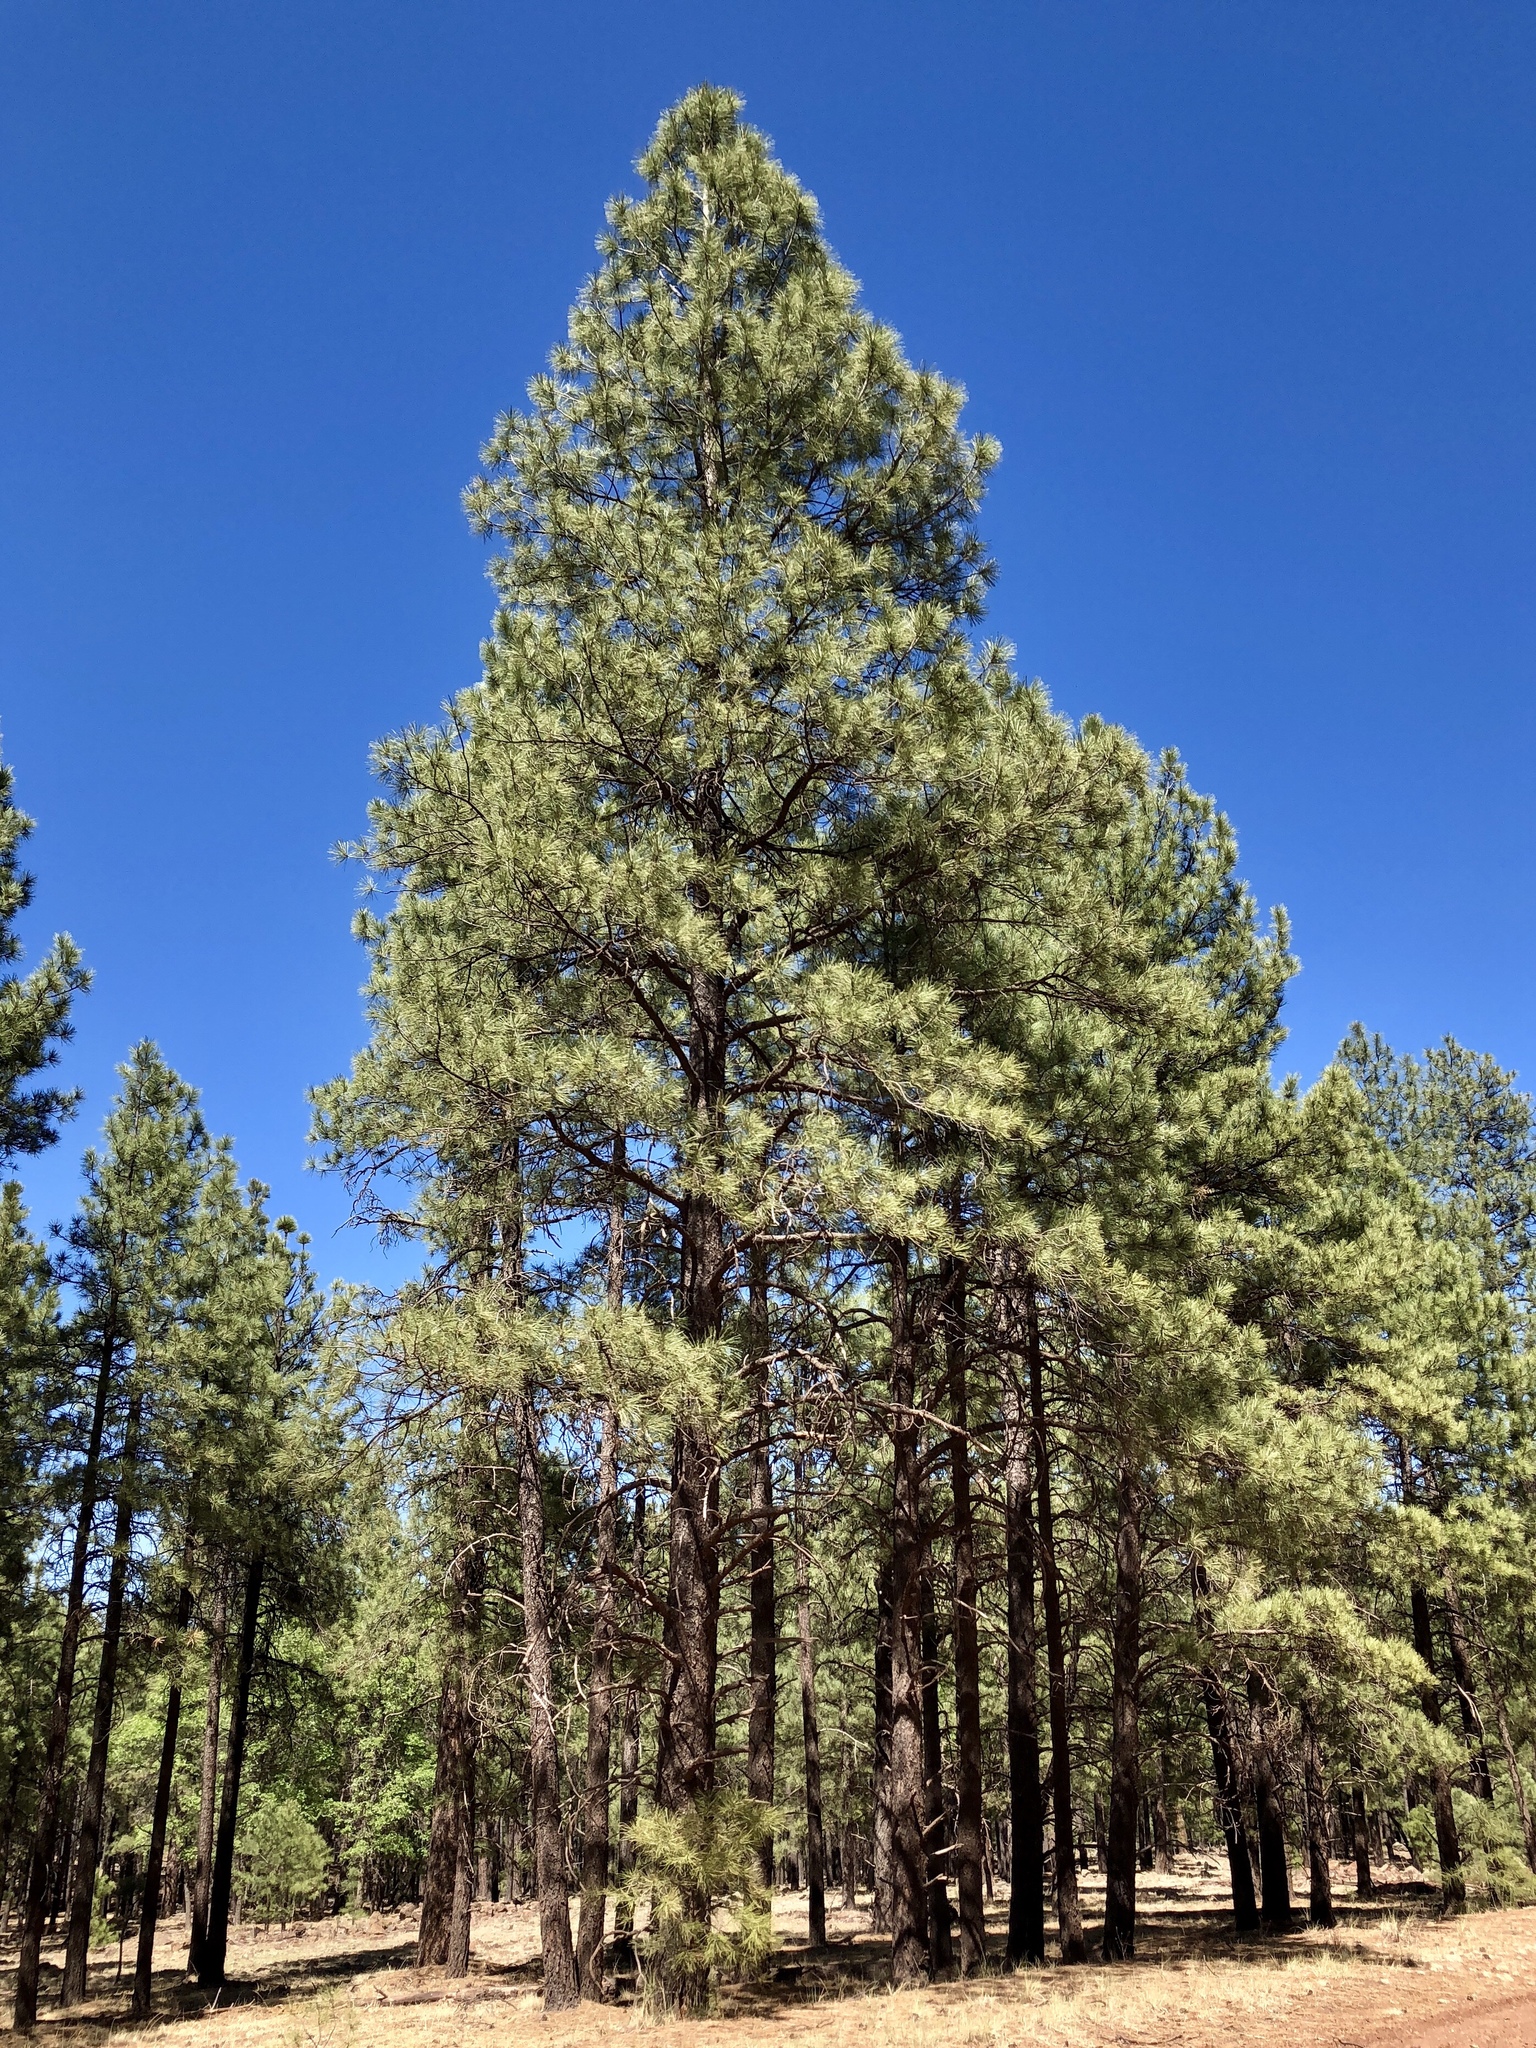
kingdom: Plantae
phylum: Tracheophyta
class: Pinopsida
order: Pinales
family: Pinaceae
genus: Pinus
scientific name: Pinus ponderosa
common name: Western yellow-pine
